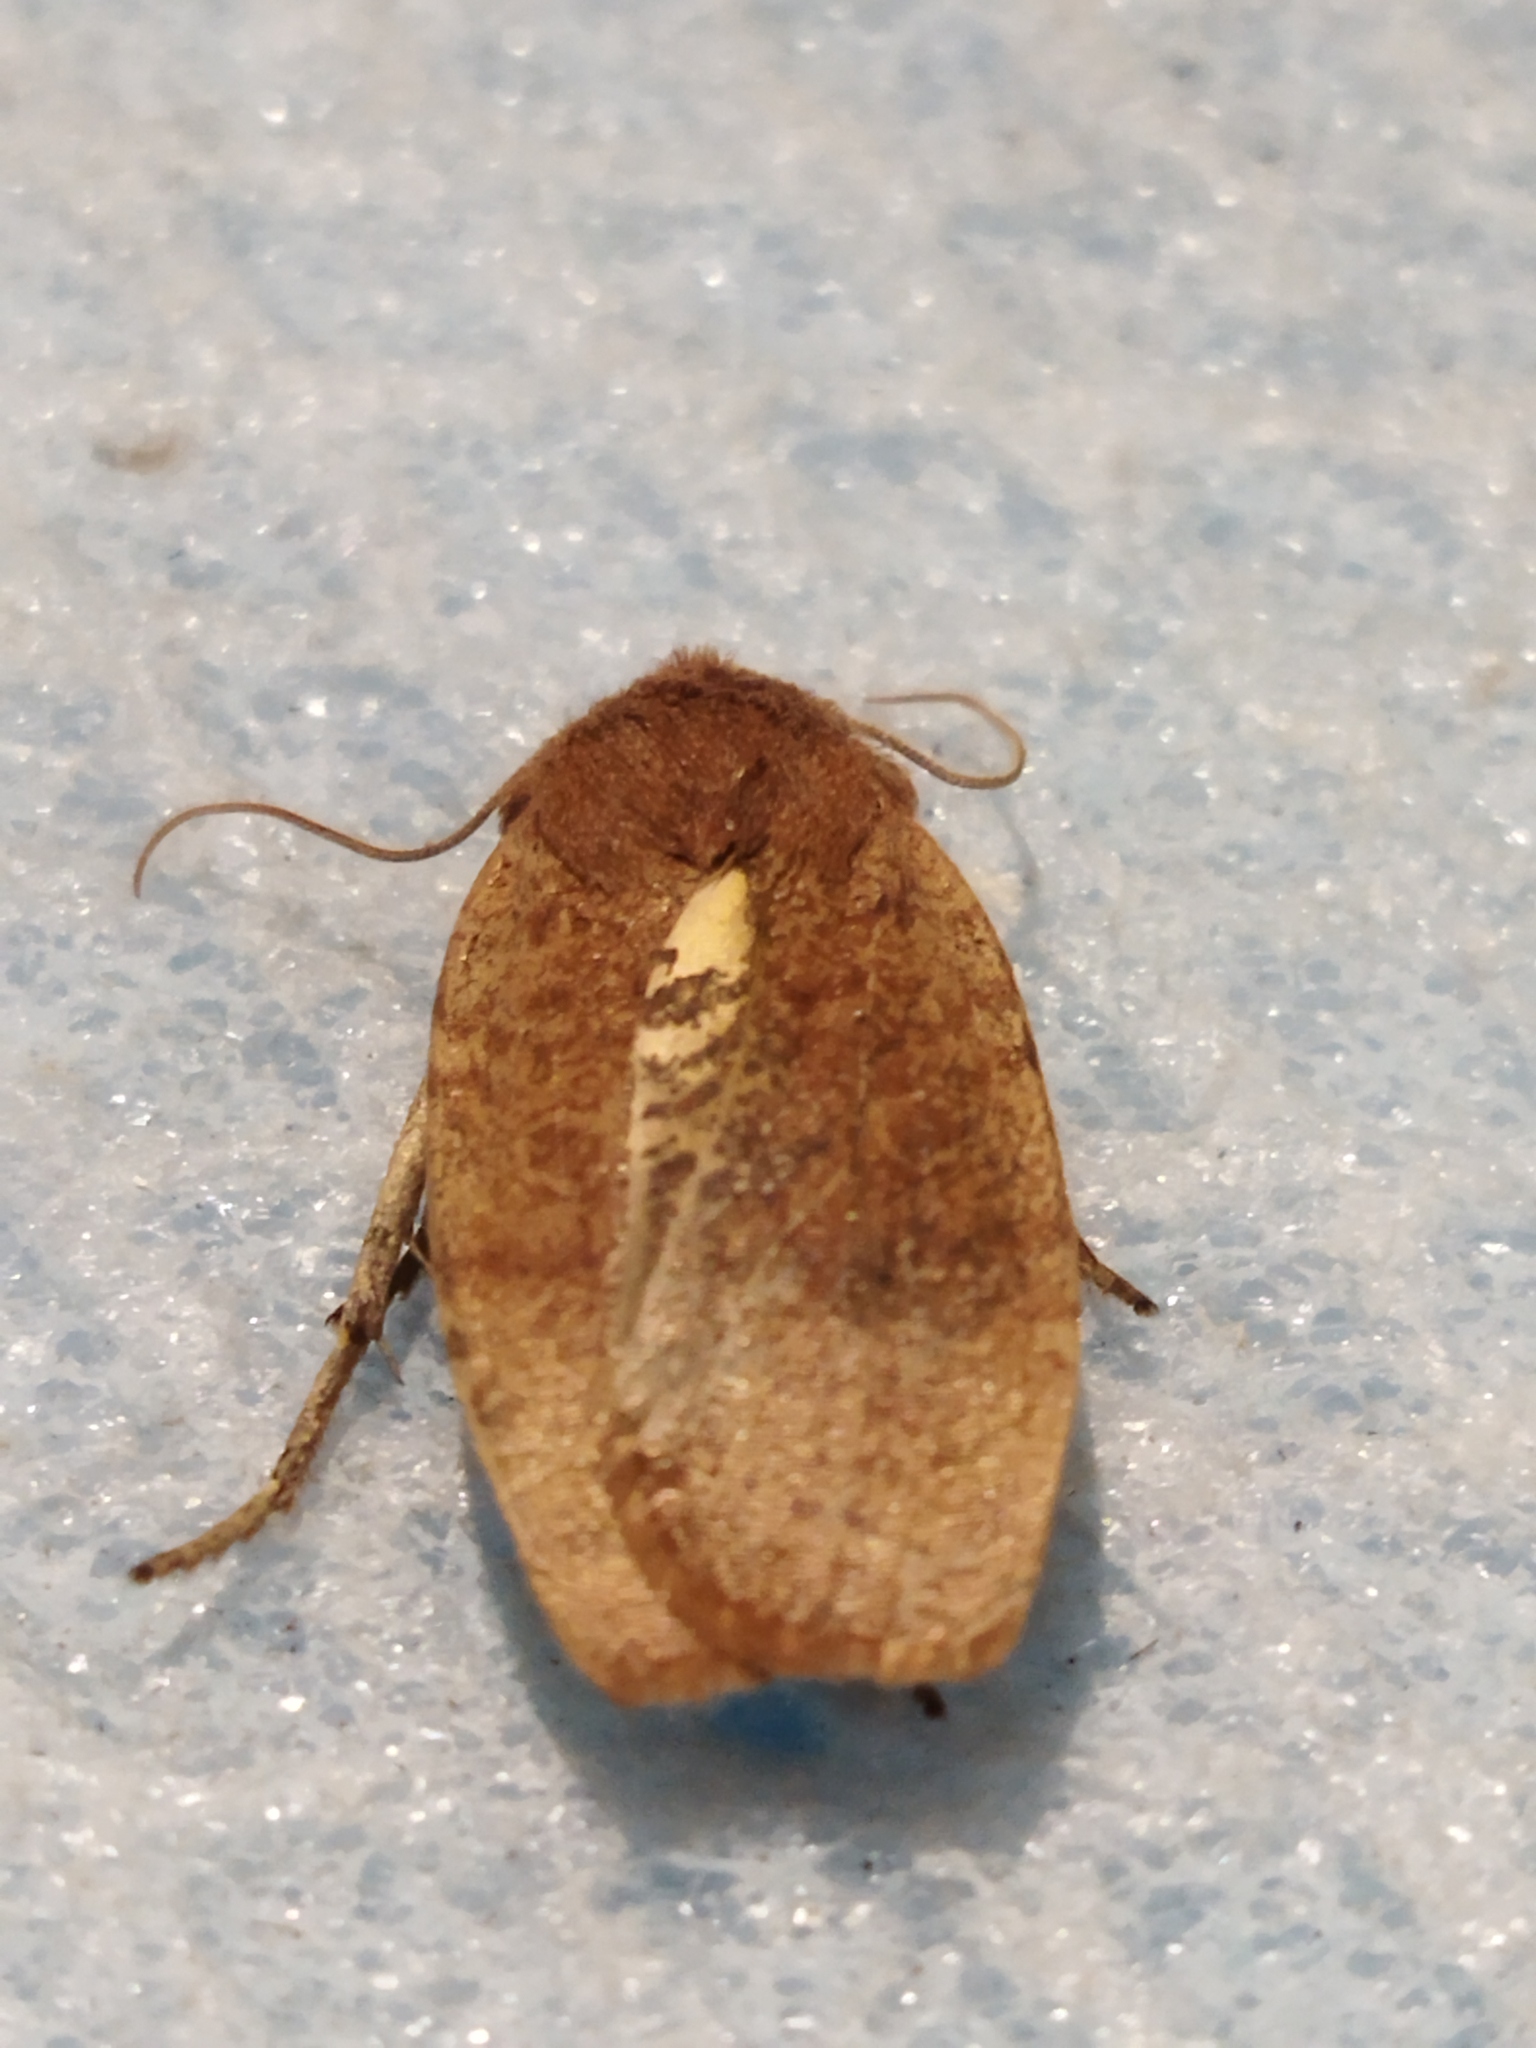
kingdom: Animalia
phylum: Arthropoda
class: Insecta
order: Lepidoptera
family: Noctuidae
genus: Conistra
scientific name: Conistra ragusae
